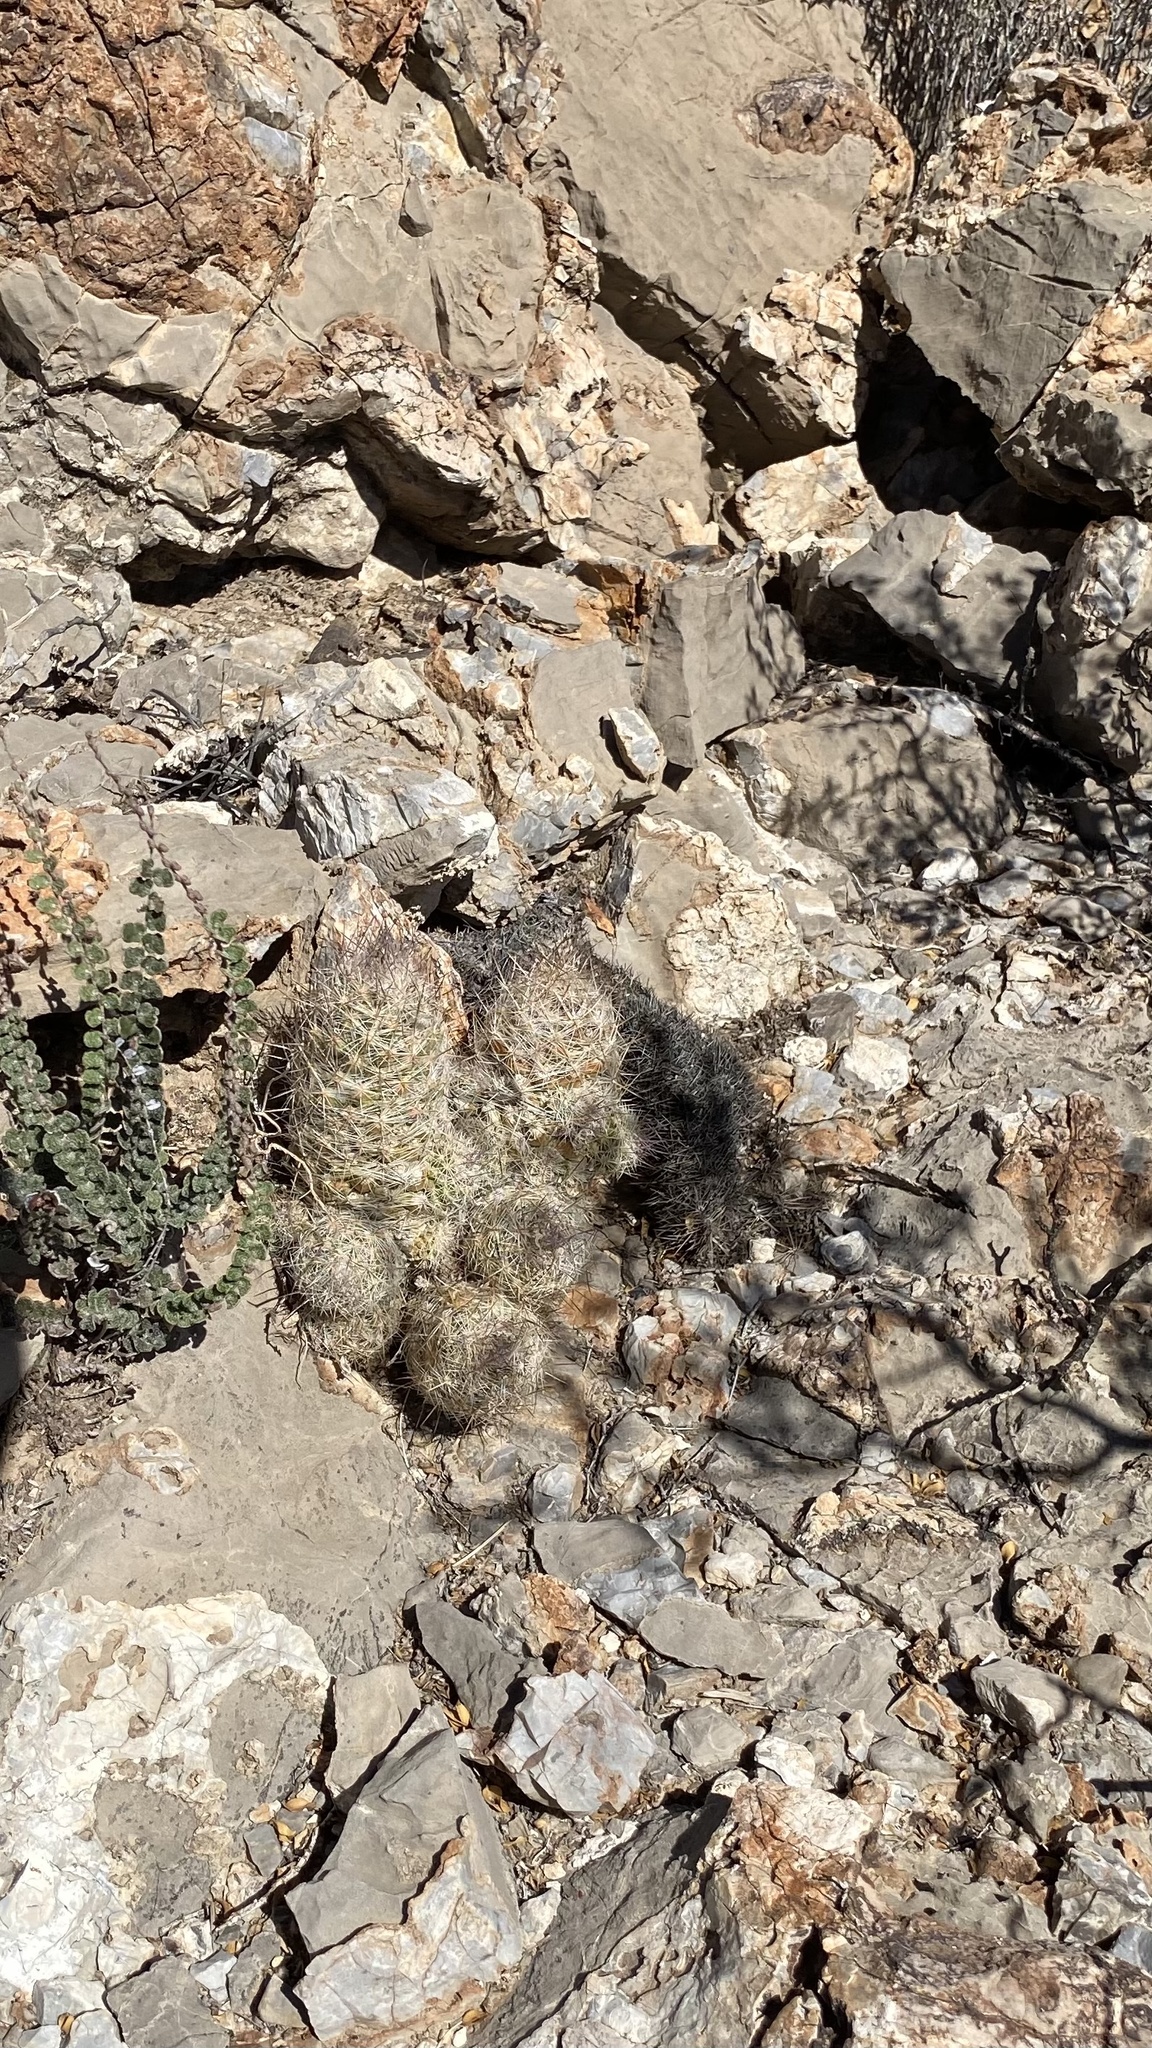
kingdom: Plantae
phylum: Tracheophyta
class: Magnoliopsida
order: Caryophyllales
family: Cactaceae
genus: Pelecyphora
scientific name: Pelecyphora tuberculosa
